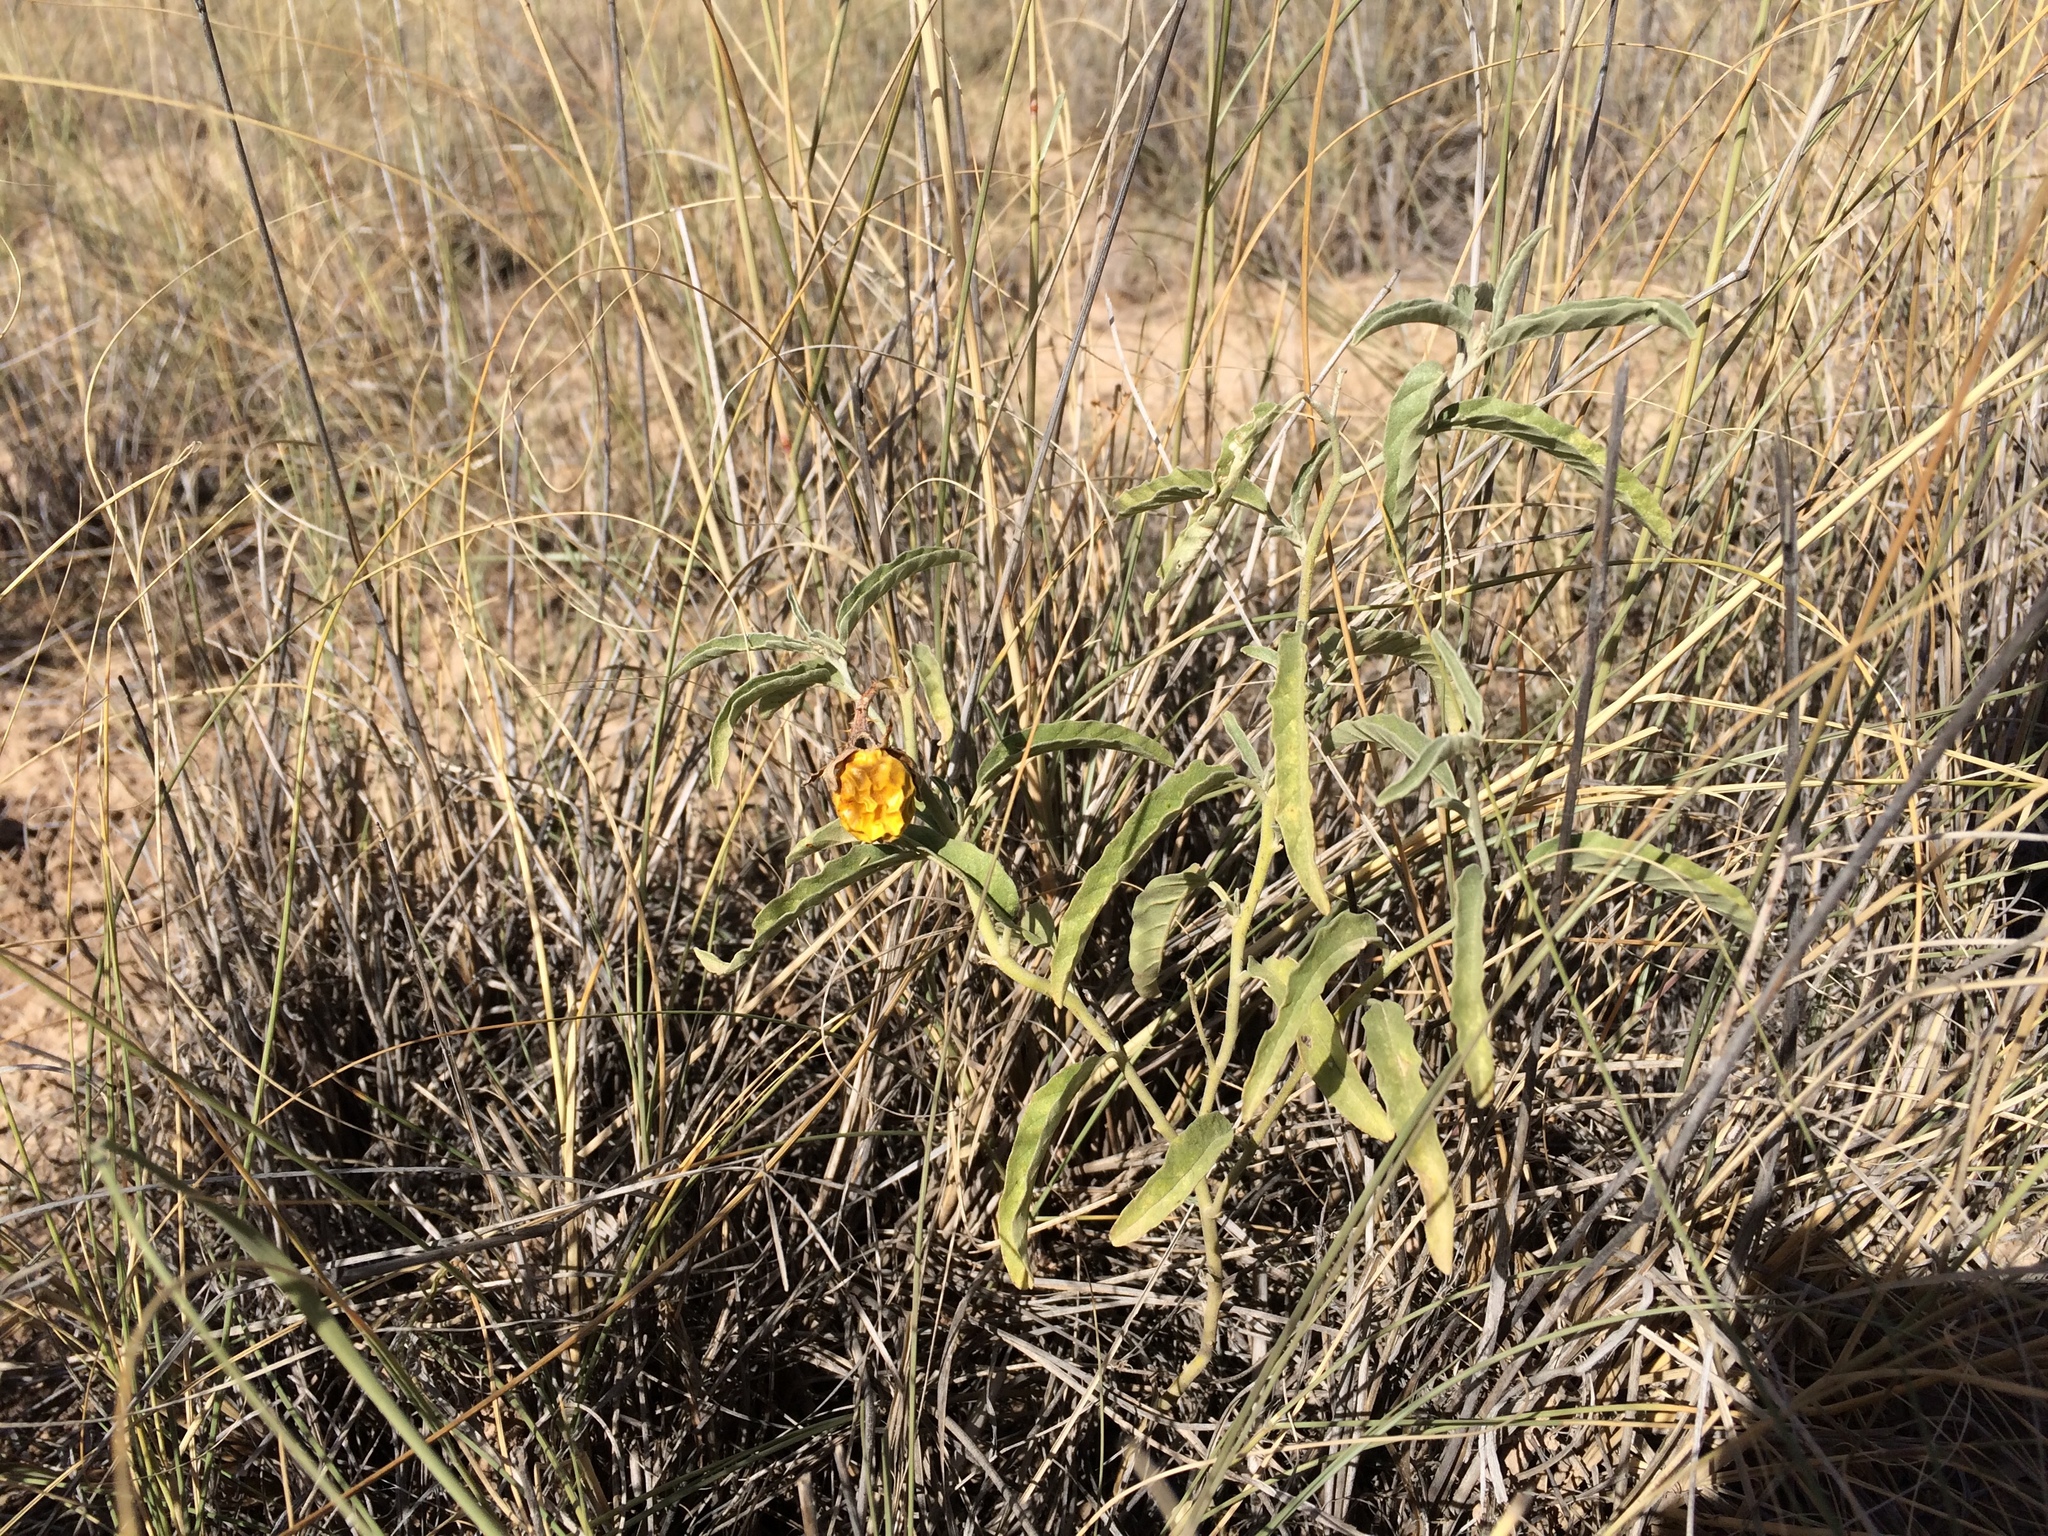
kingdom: Plantae
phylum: Tracheophyta
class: Magnoliopsida
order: Solanales
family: Solanaceae
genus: Solanum
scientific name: Solanum elaeagnifolium
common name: Silverleaf nightshade
